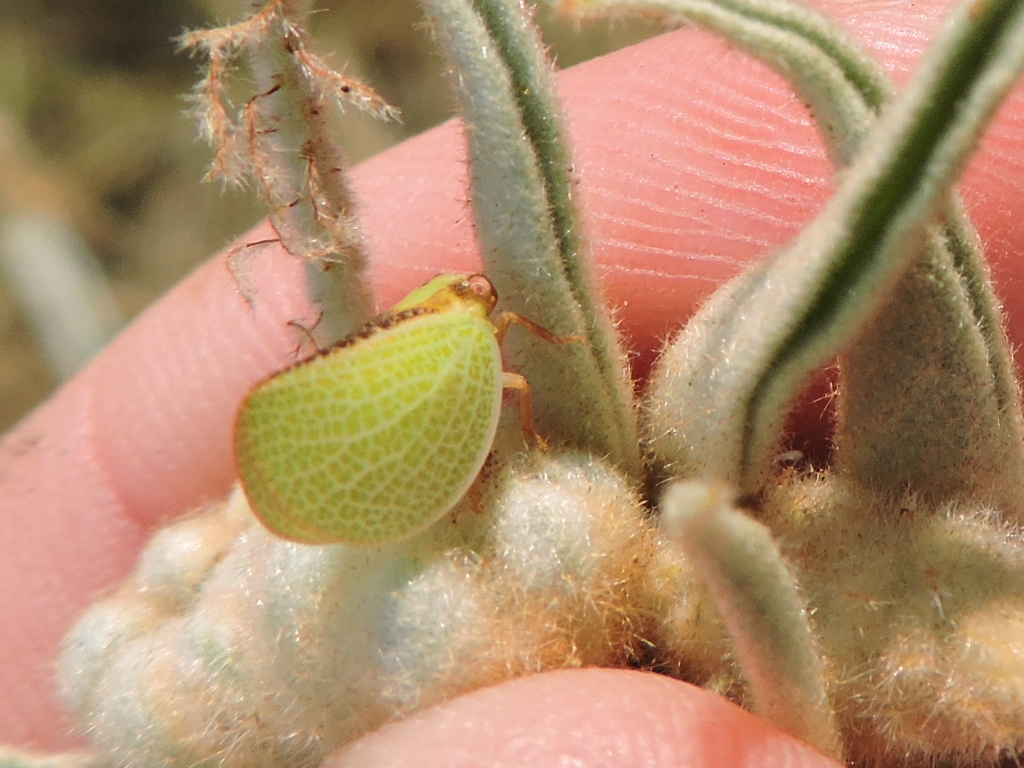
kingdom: Animalia
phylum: Arthropoda
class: Insecta
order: Hemiptera
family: Acanaloniidae
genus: Acanalonia
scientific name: Acanalonia bivittata
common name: Two-striped planthopper
